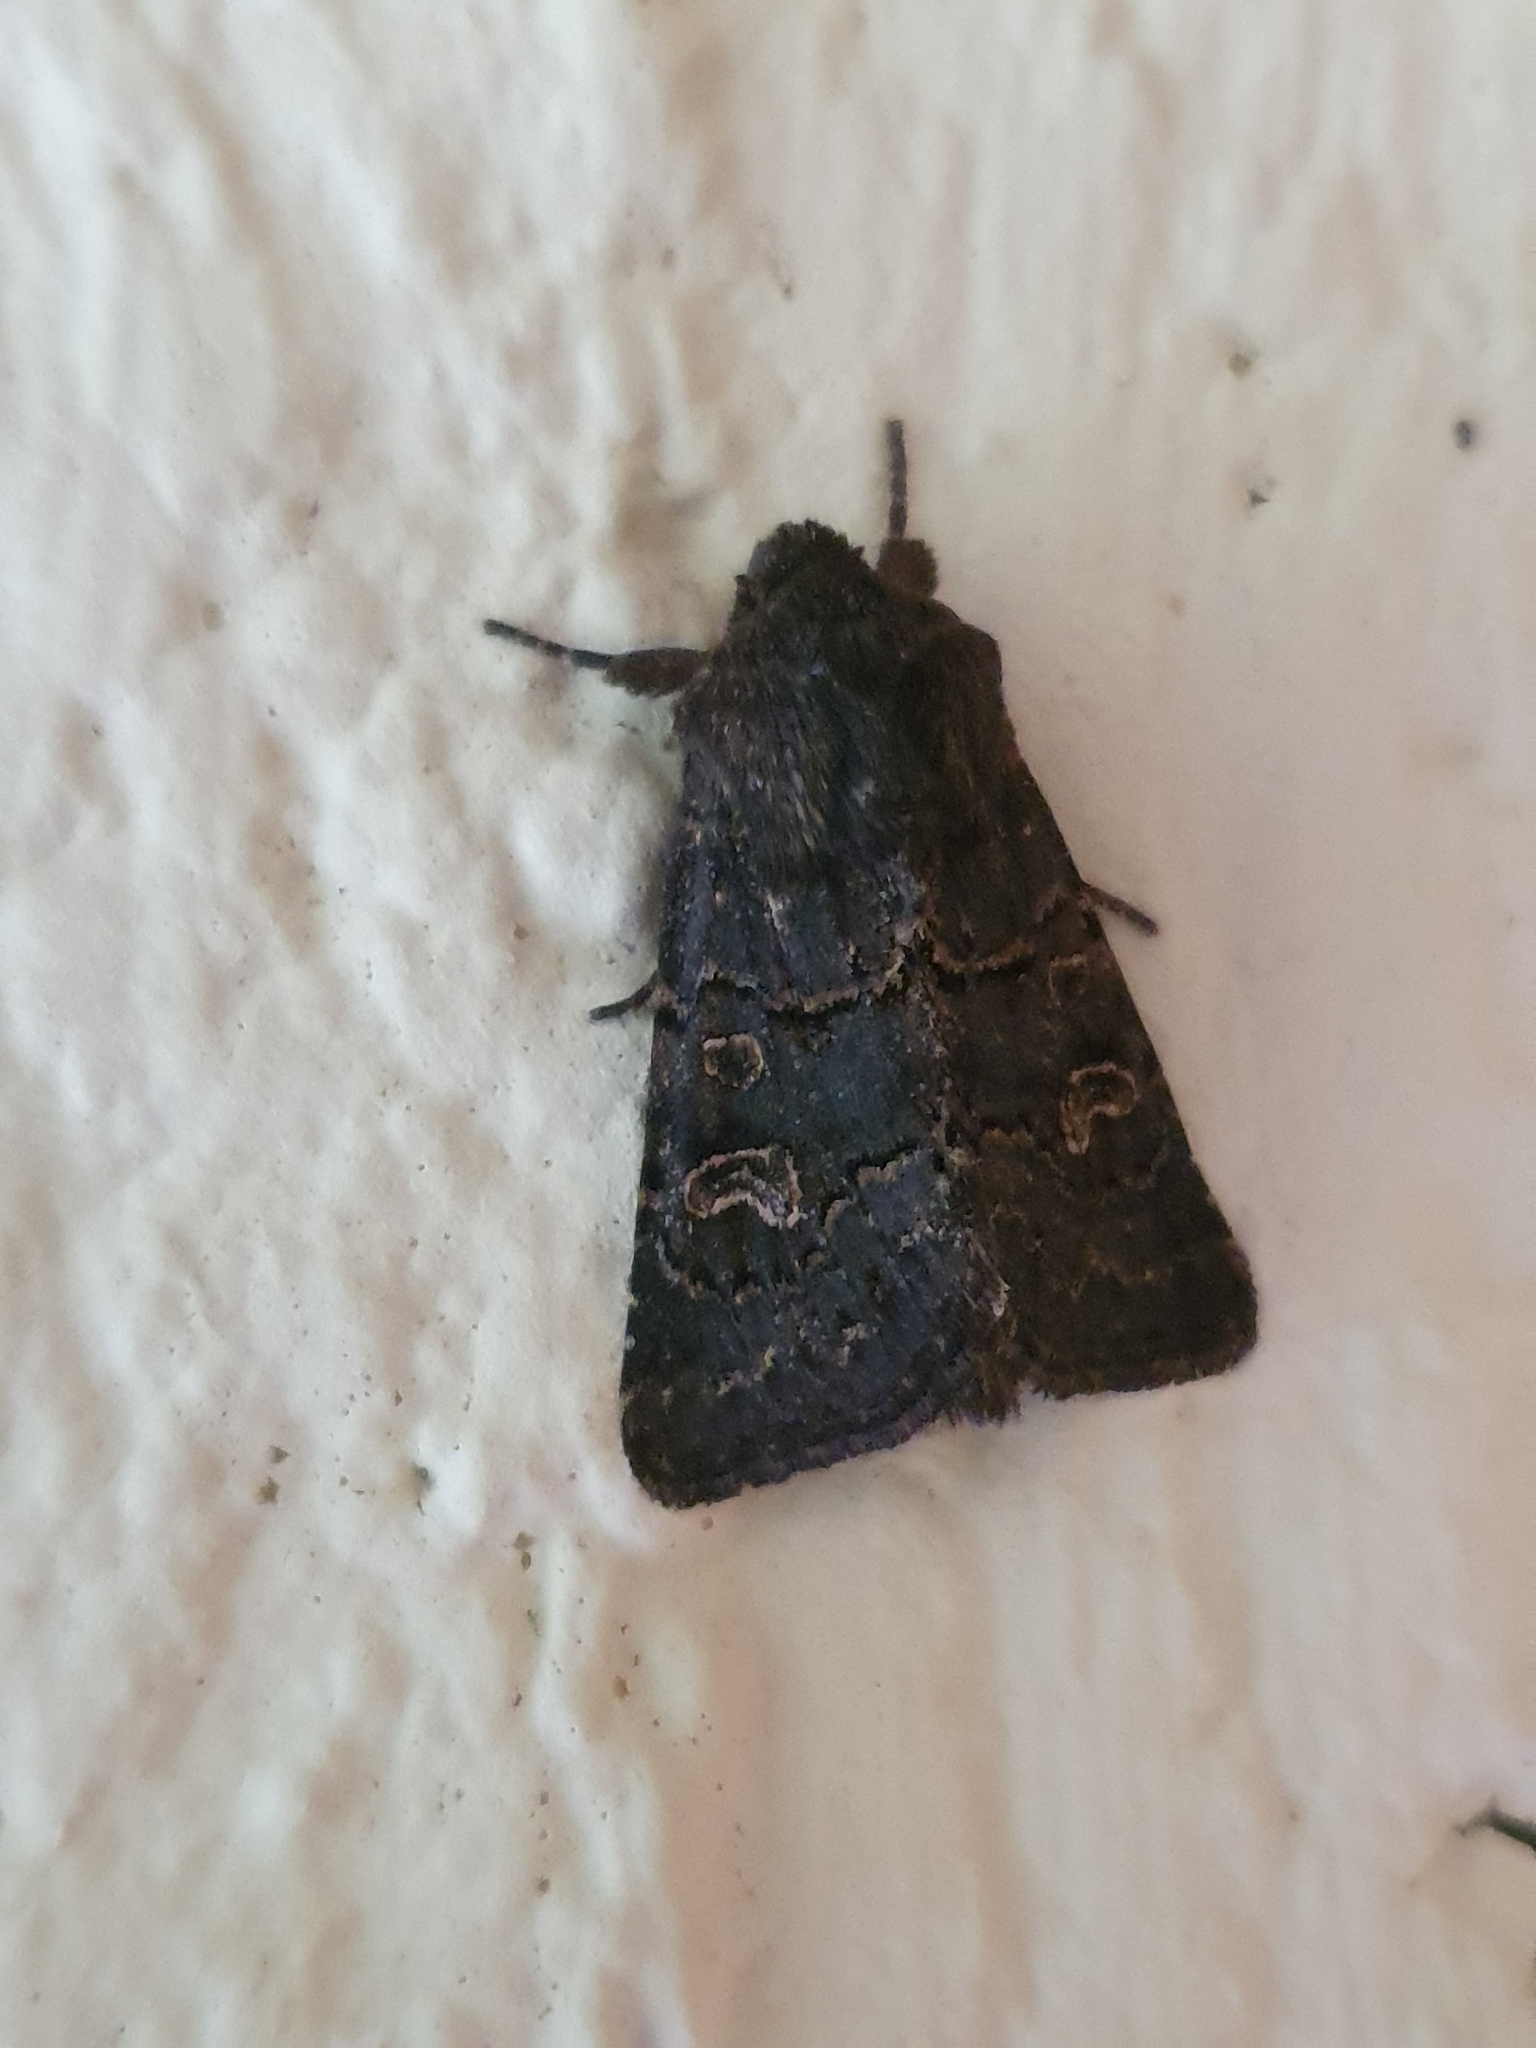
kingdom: Animalia
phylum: Arthropoda
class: Insecta
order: Lepidoptera
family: Noctuidae
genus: Tholera
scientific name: Tholera cespitis
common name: Hedge rustic
